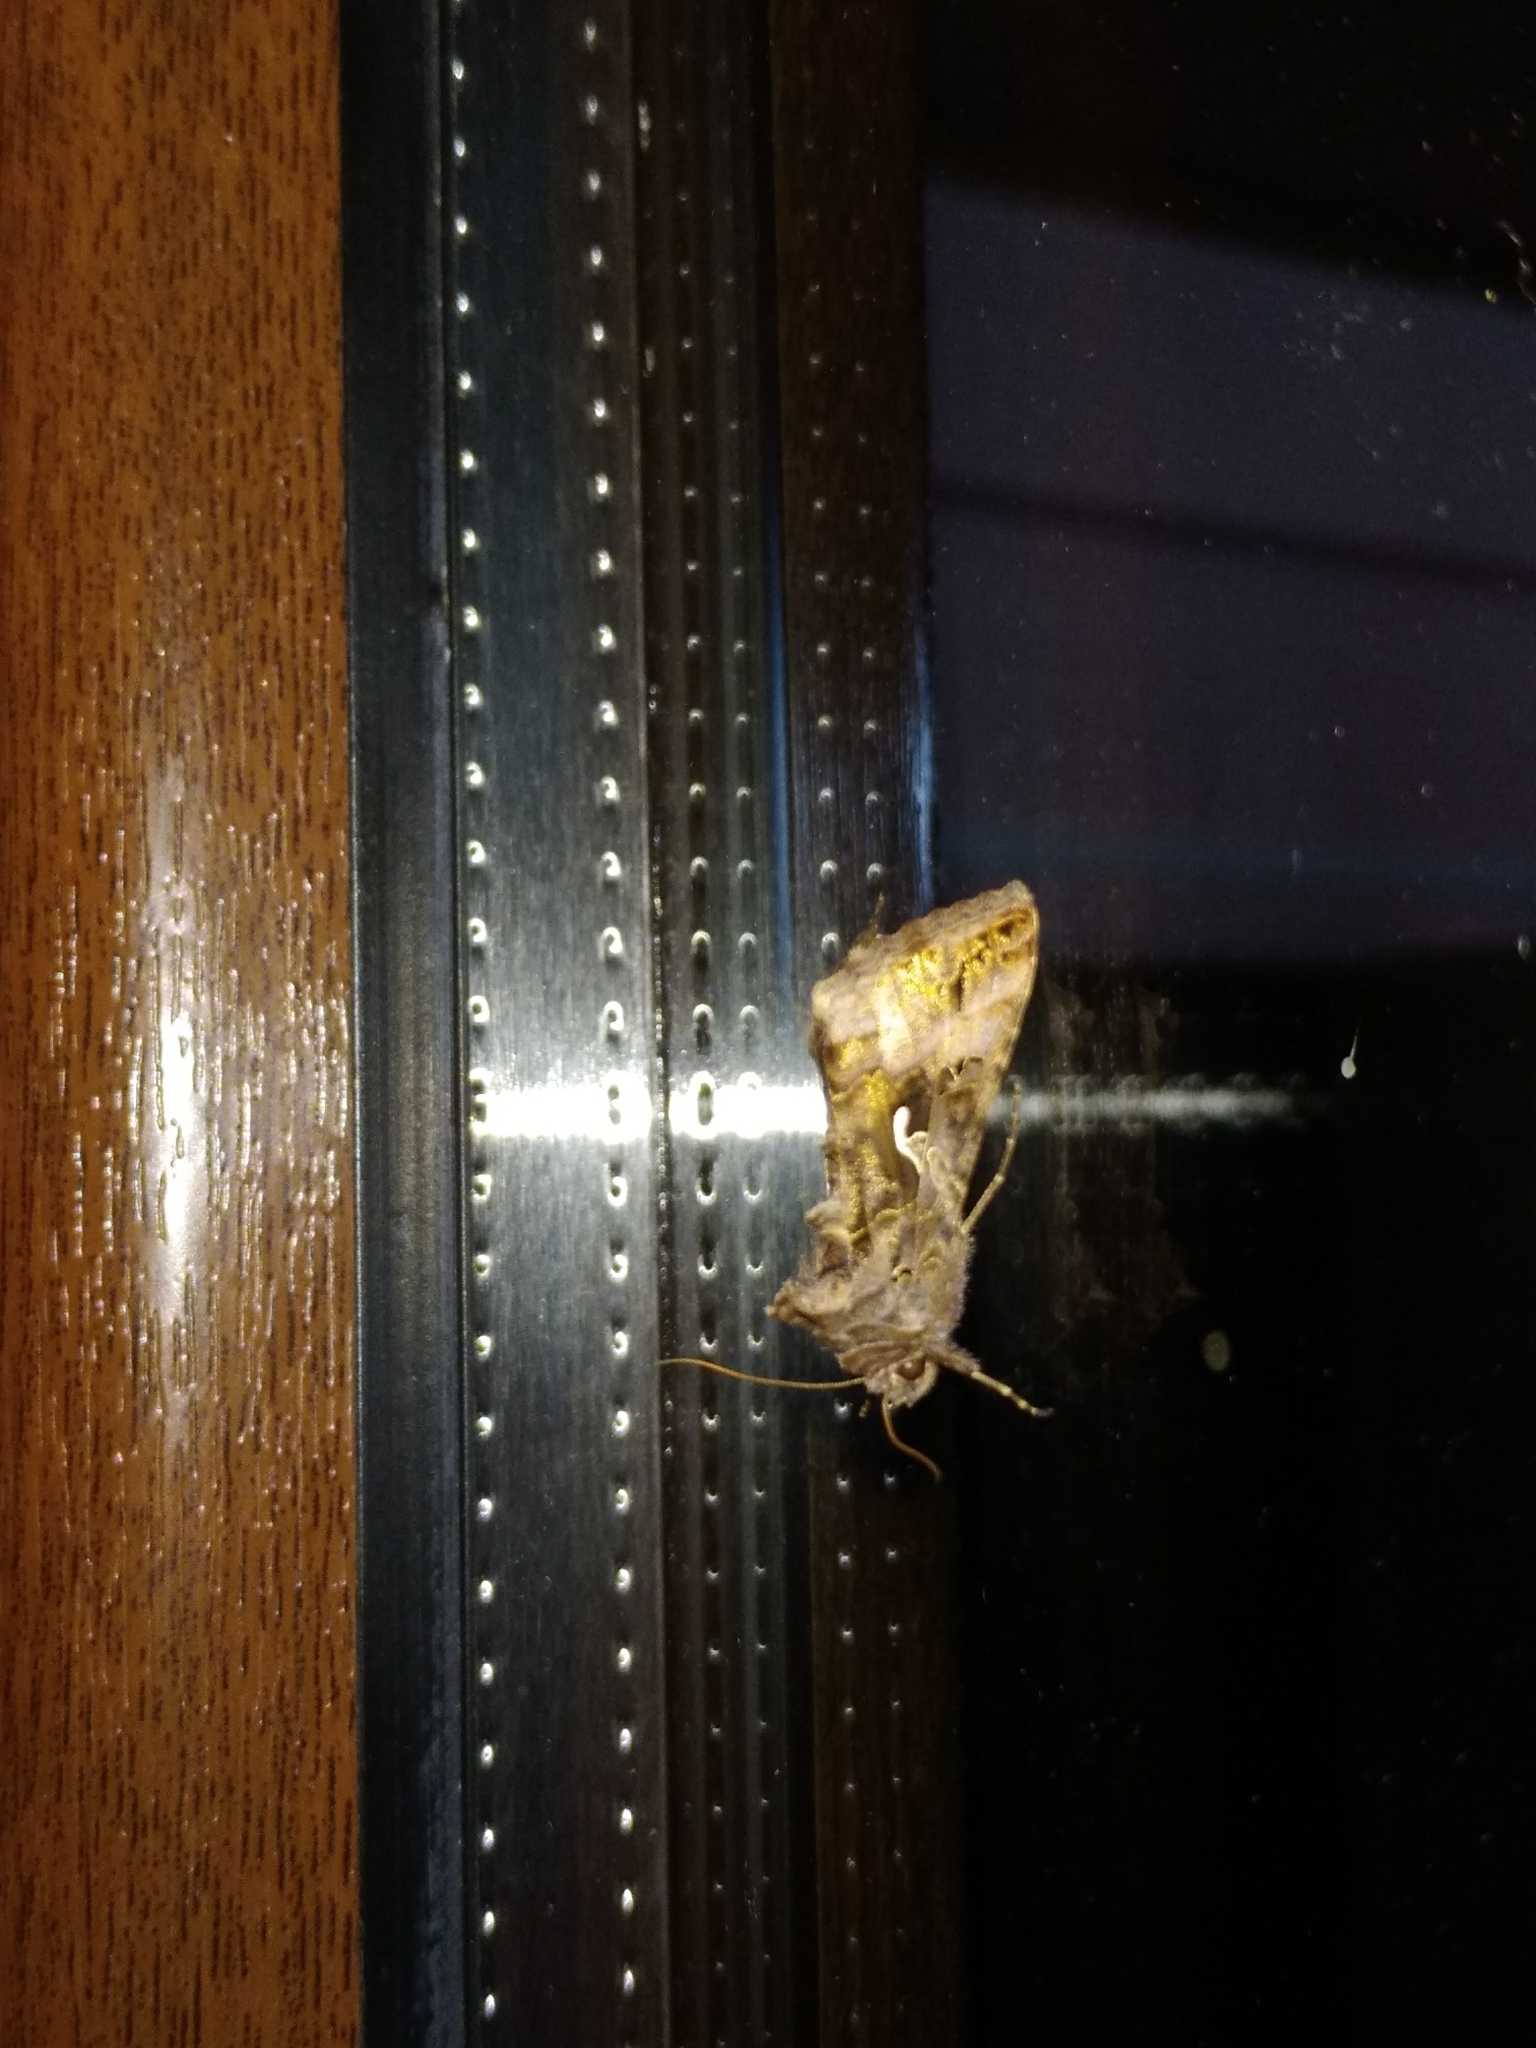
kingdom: Animalia
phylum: Arthropoda
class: Insecta
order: Lepidoptera
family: Noctuidae
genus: Autographa
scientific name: Autographa gamma
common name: Silver y
